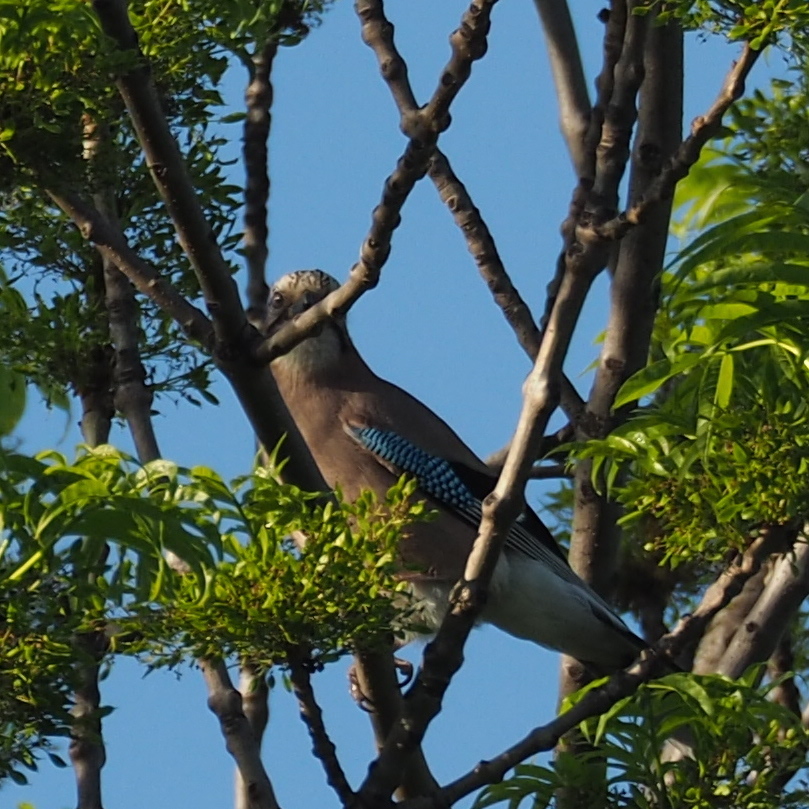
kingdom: Animalia
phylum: Chordata
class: Aves
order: Passeriformes
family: Corvidae
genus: Garrulus
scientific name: Garrulus glandarius
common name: Eurasian jay
